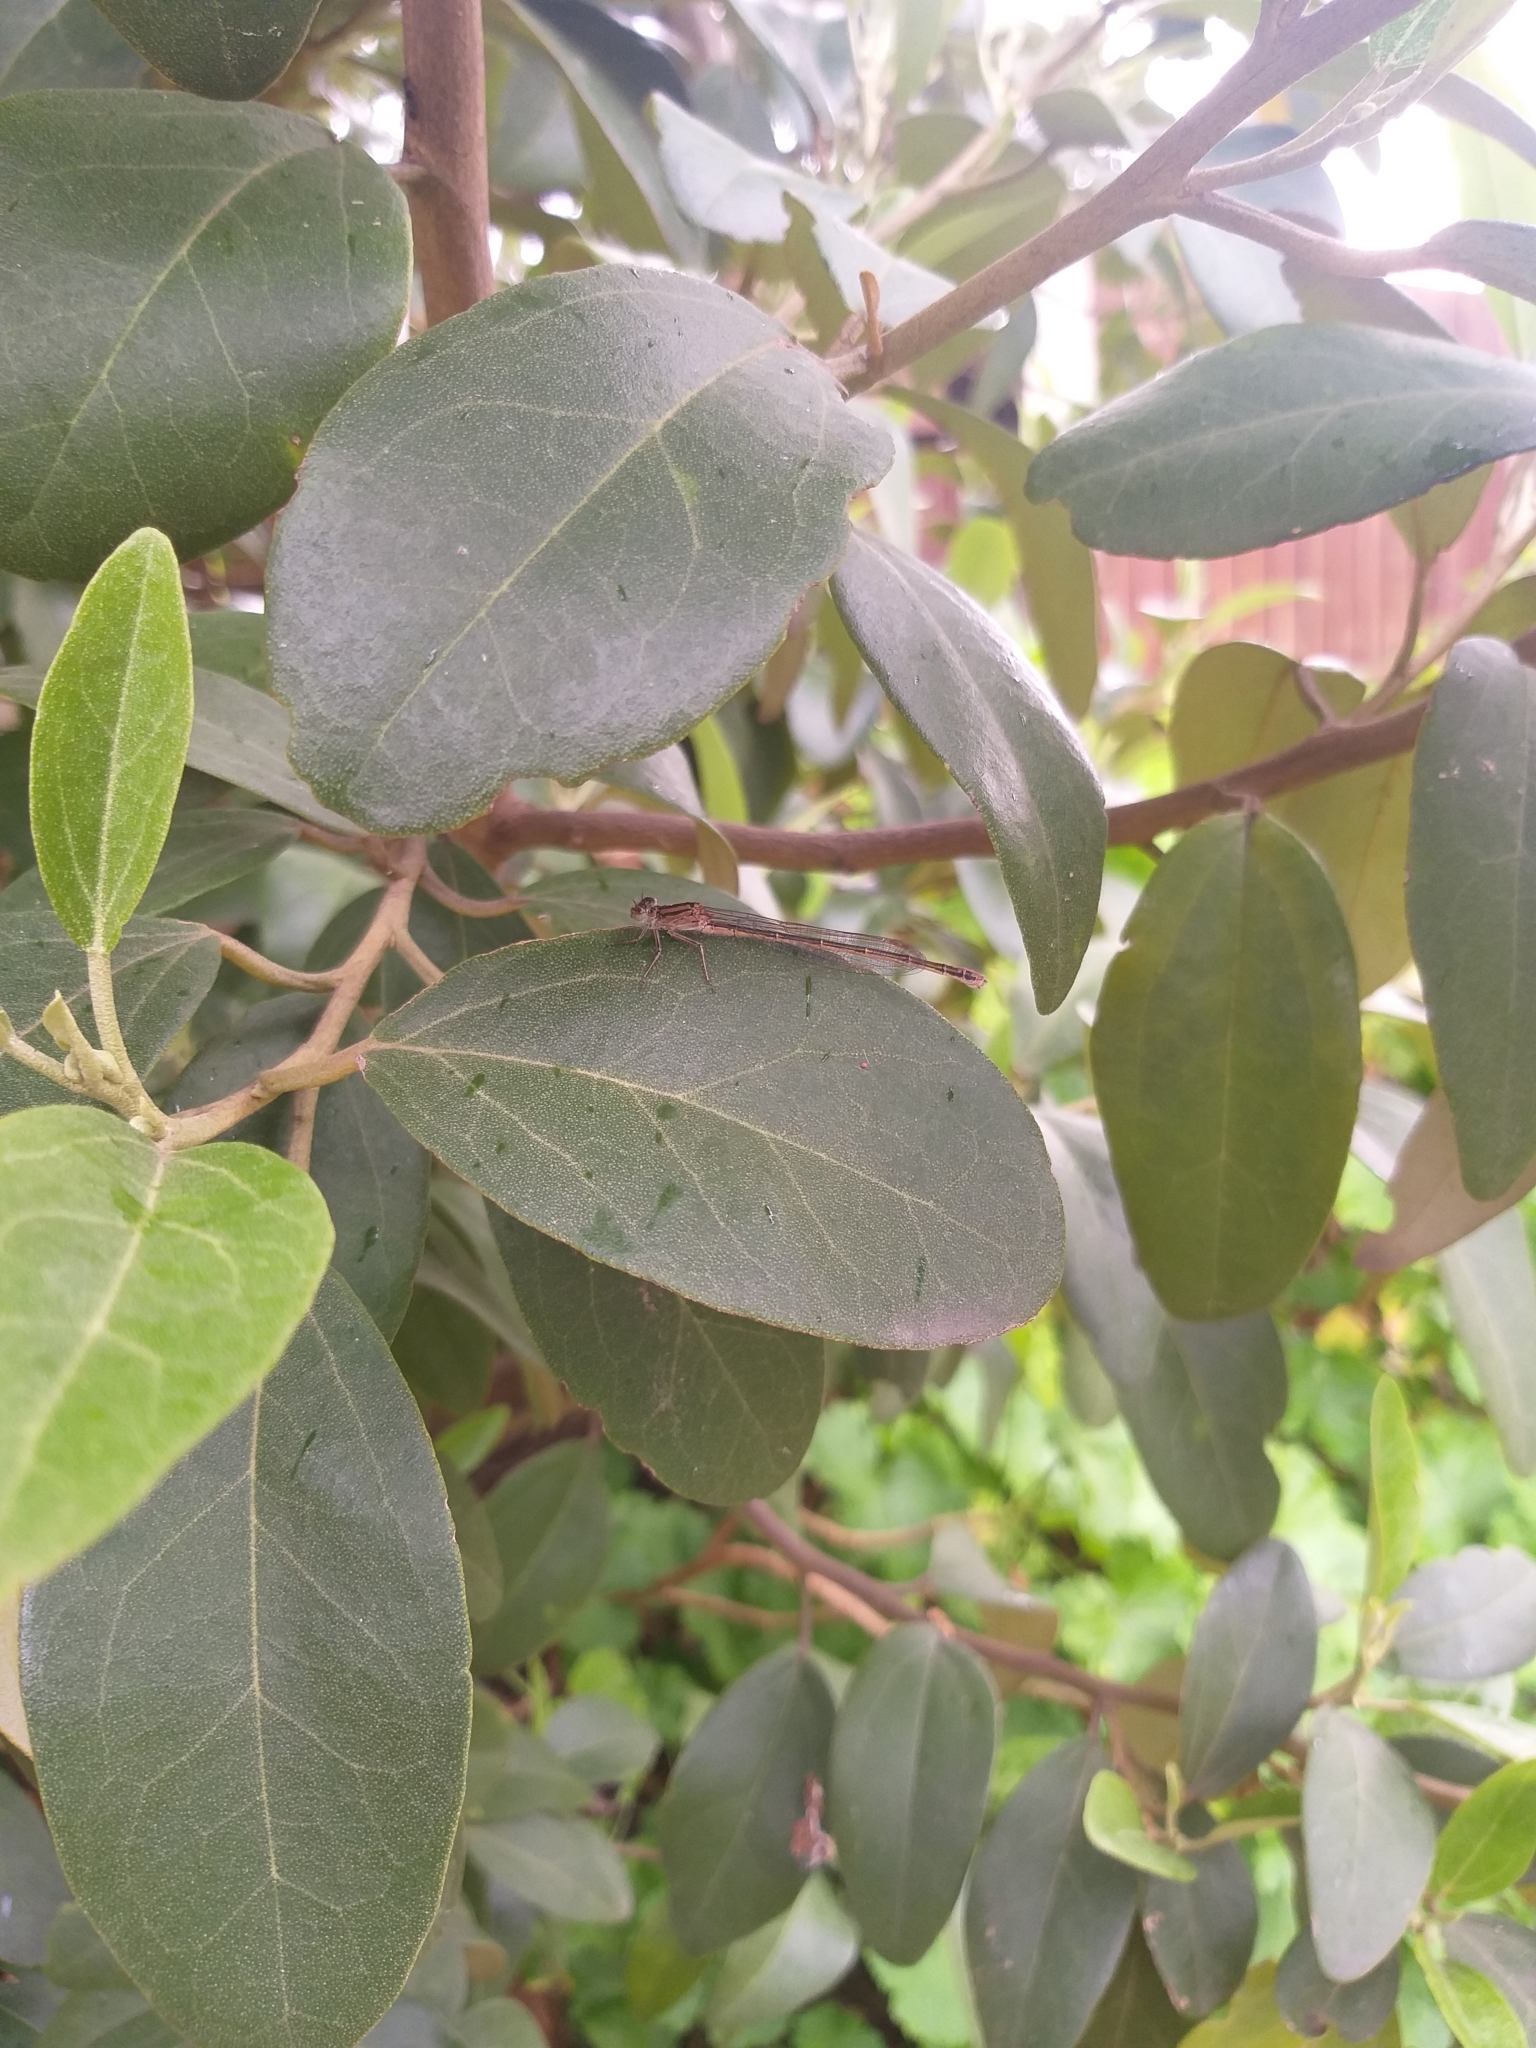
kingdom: Animalia
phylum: Arthropoda
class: Insecta
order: Odonata
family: Coenagrionidae
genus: Pseudagrion
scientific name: Pseudagrion draconis
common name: Mountain sprite
